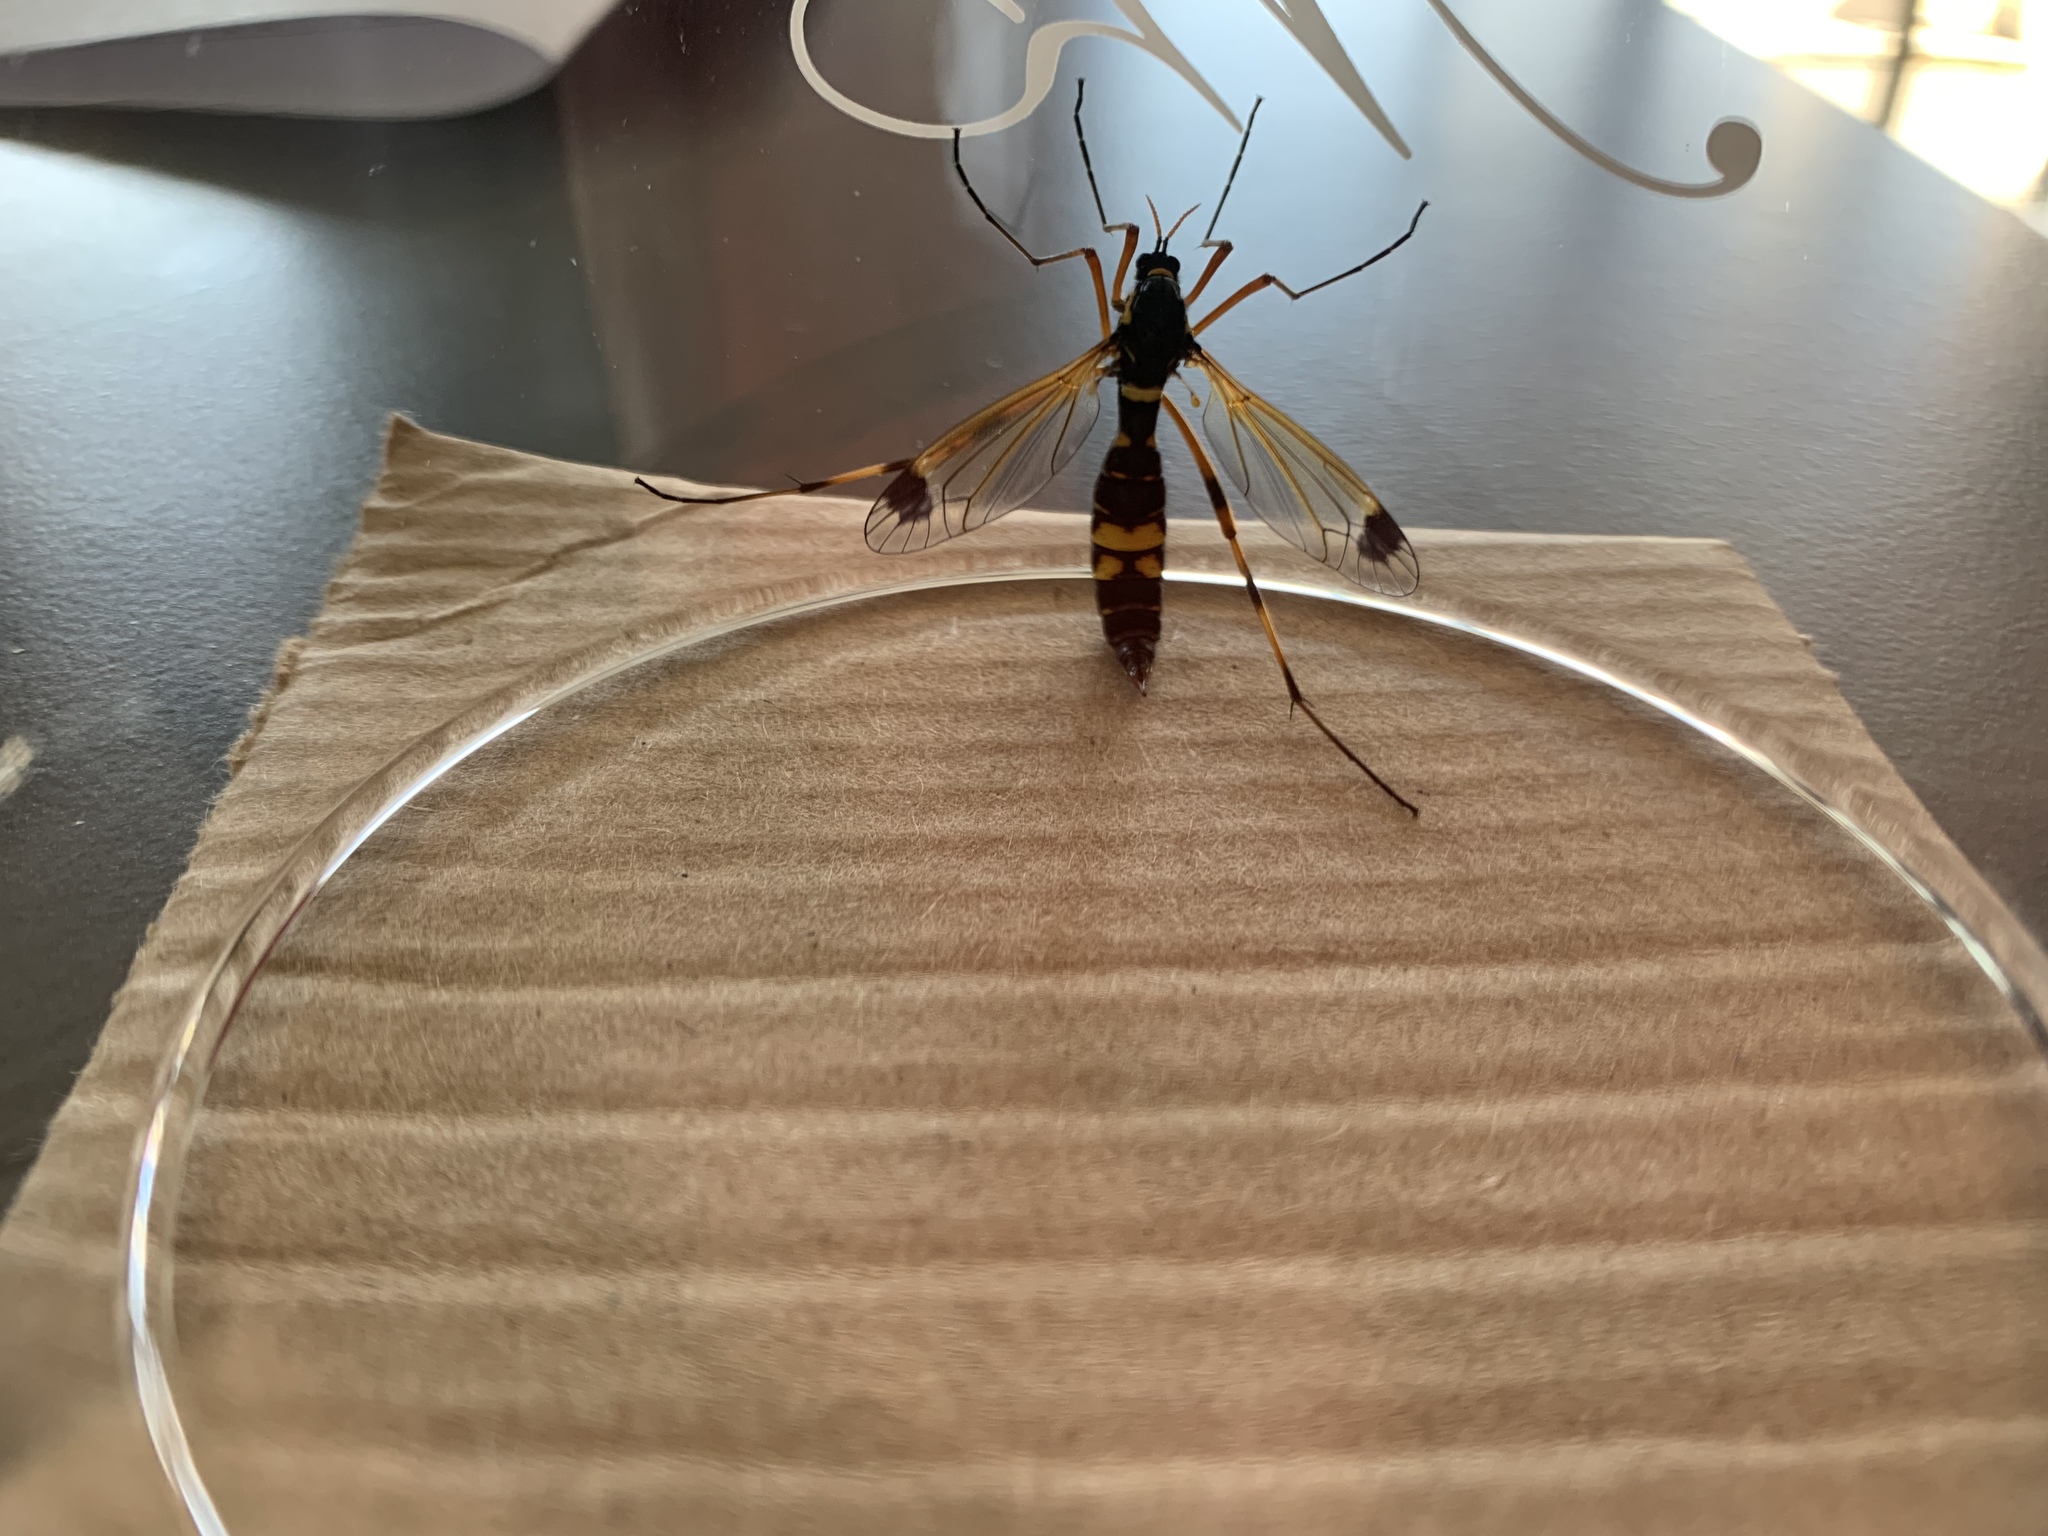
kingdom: Animalia
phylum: Arthropoda
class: Insecta
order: Diptera
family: Tipulidae
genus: Ctenophora
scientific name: Ctenophora festiva
